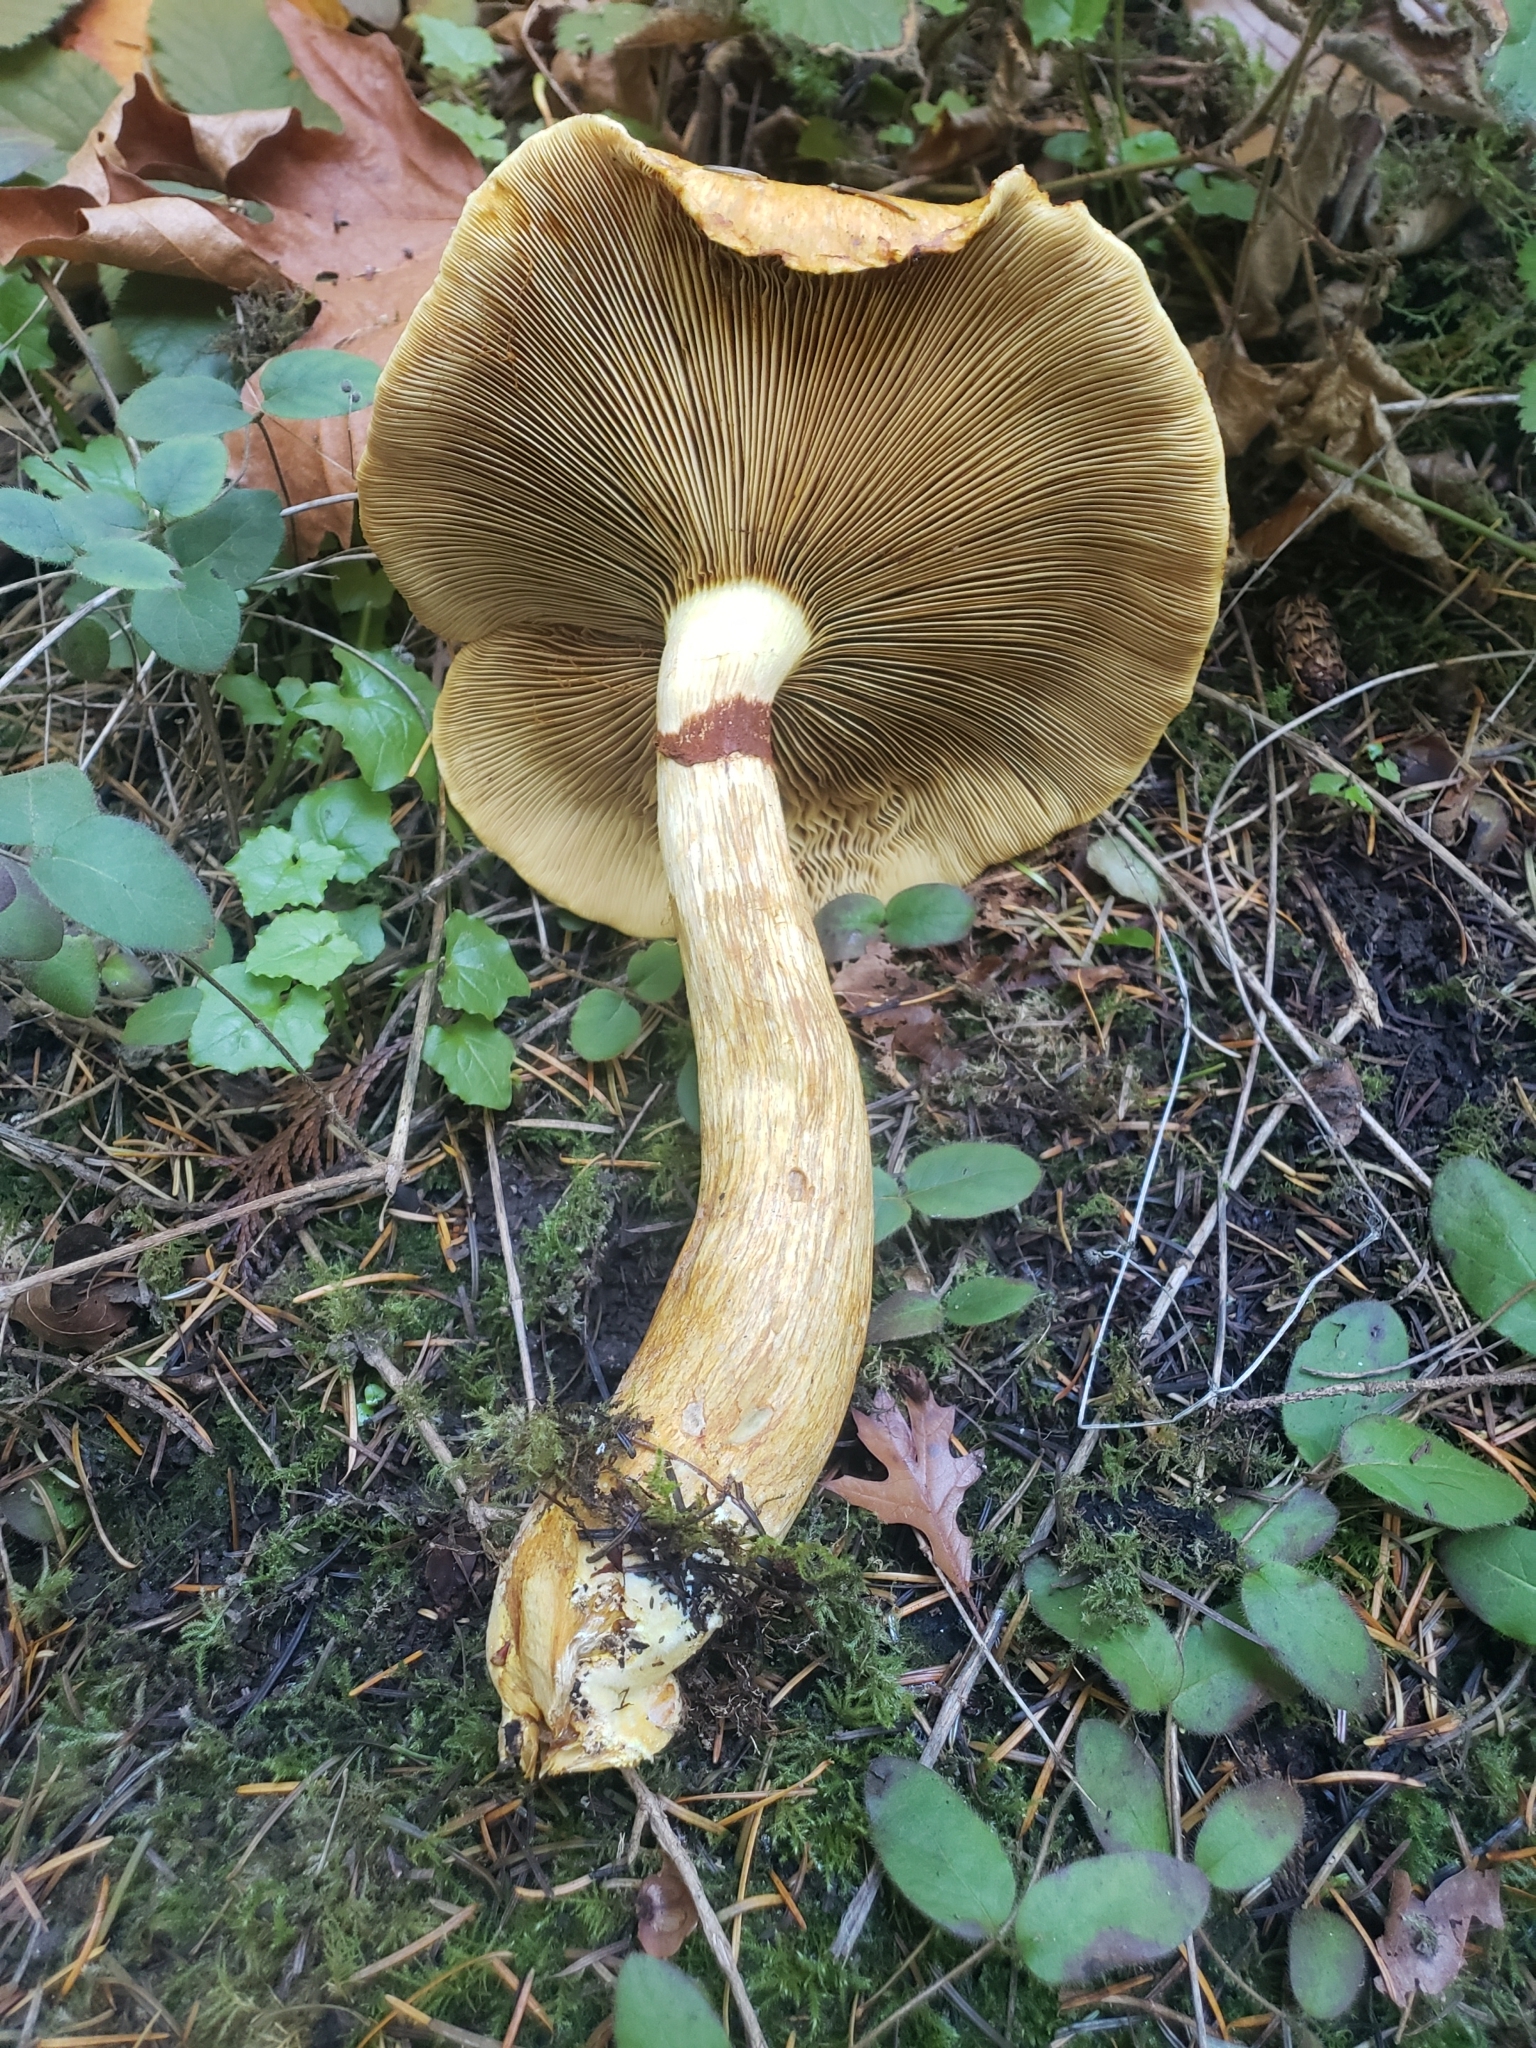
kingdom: Fungi
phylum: Basidiomycota
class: Agaricomycetes
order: Agaricales
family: Hymenogastraceae
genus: Gymnopilus
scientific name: Gymnopilus ventricosus
